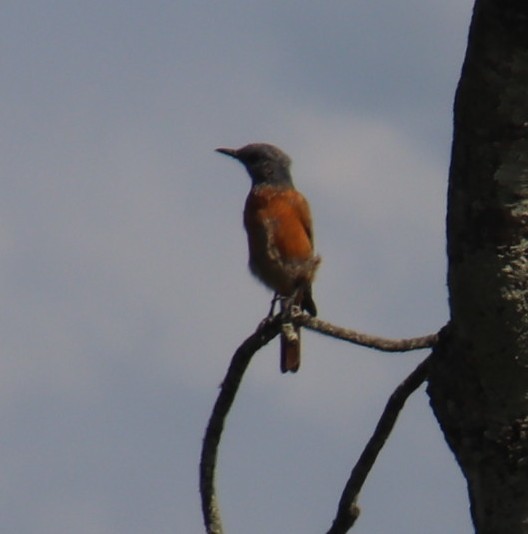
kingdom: Animalia
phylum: Chordata
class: Aves
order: Passeriformes
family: Muscicapidae
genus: Monticola
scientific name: Monticola rupestris
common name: Cape rock thrush
